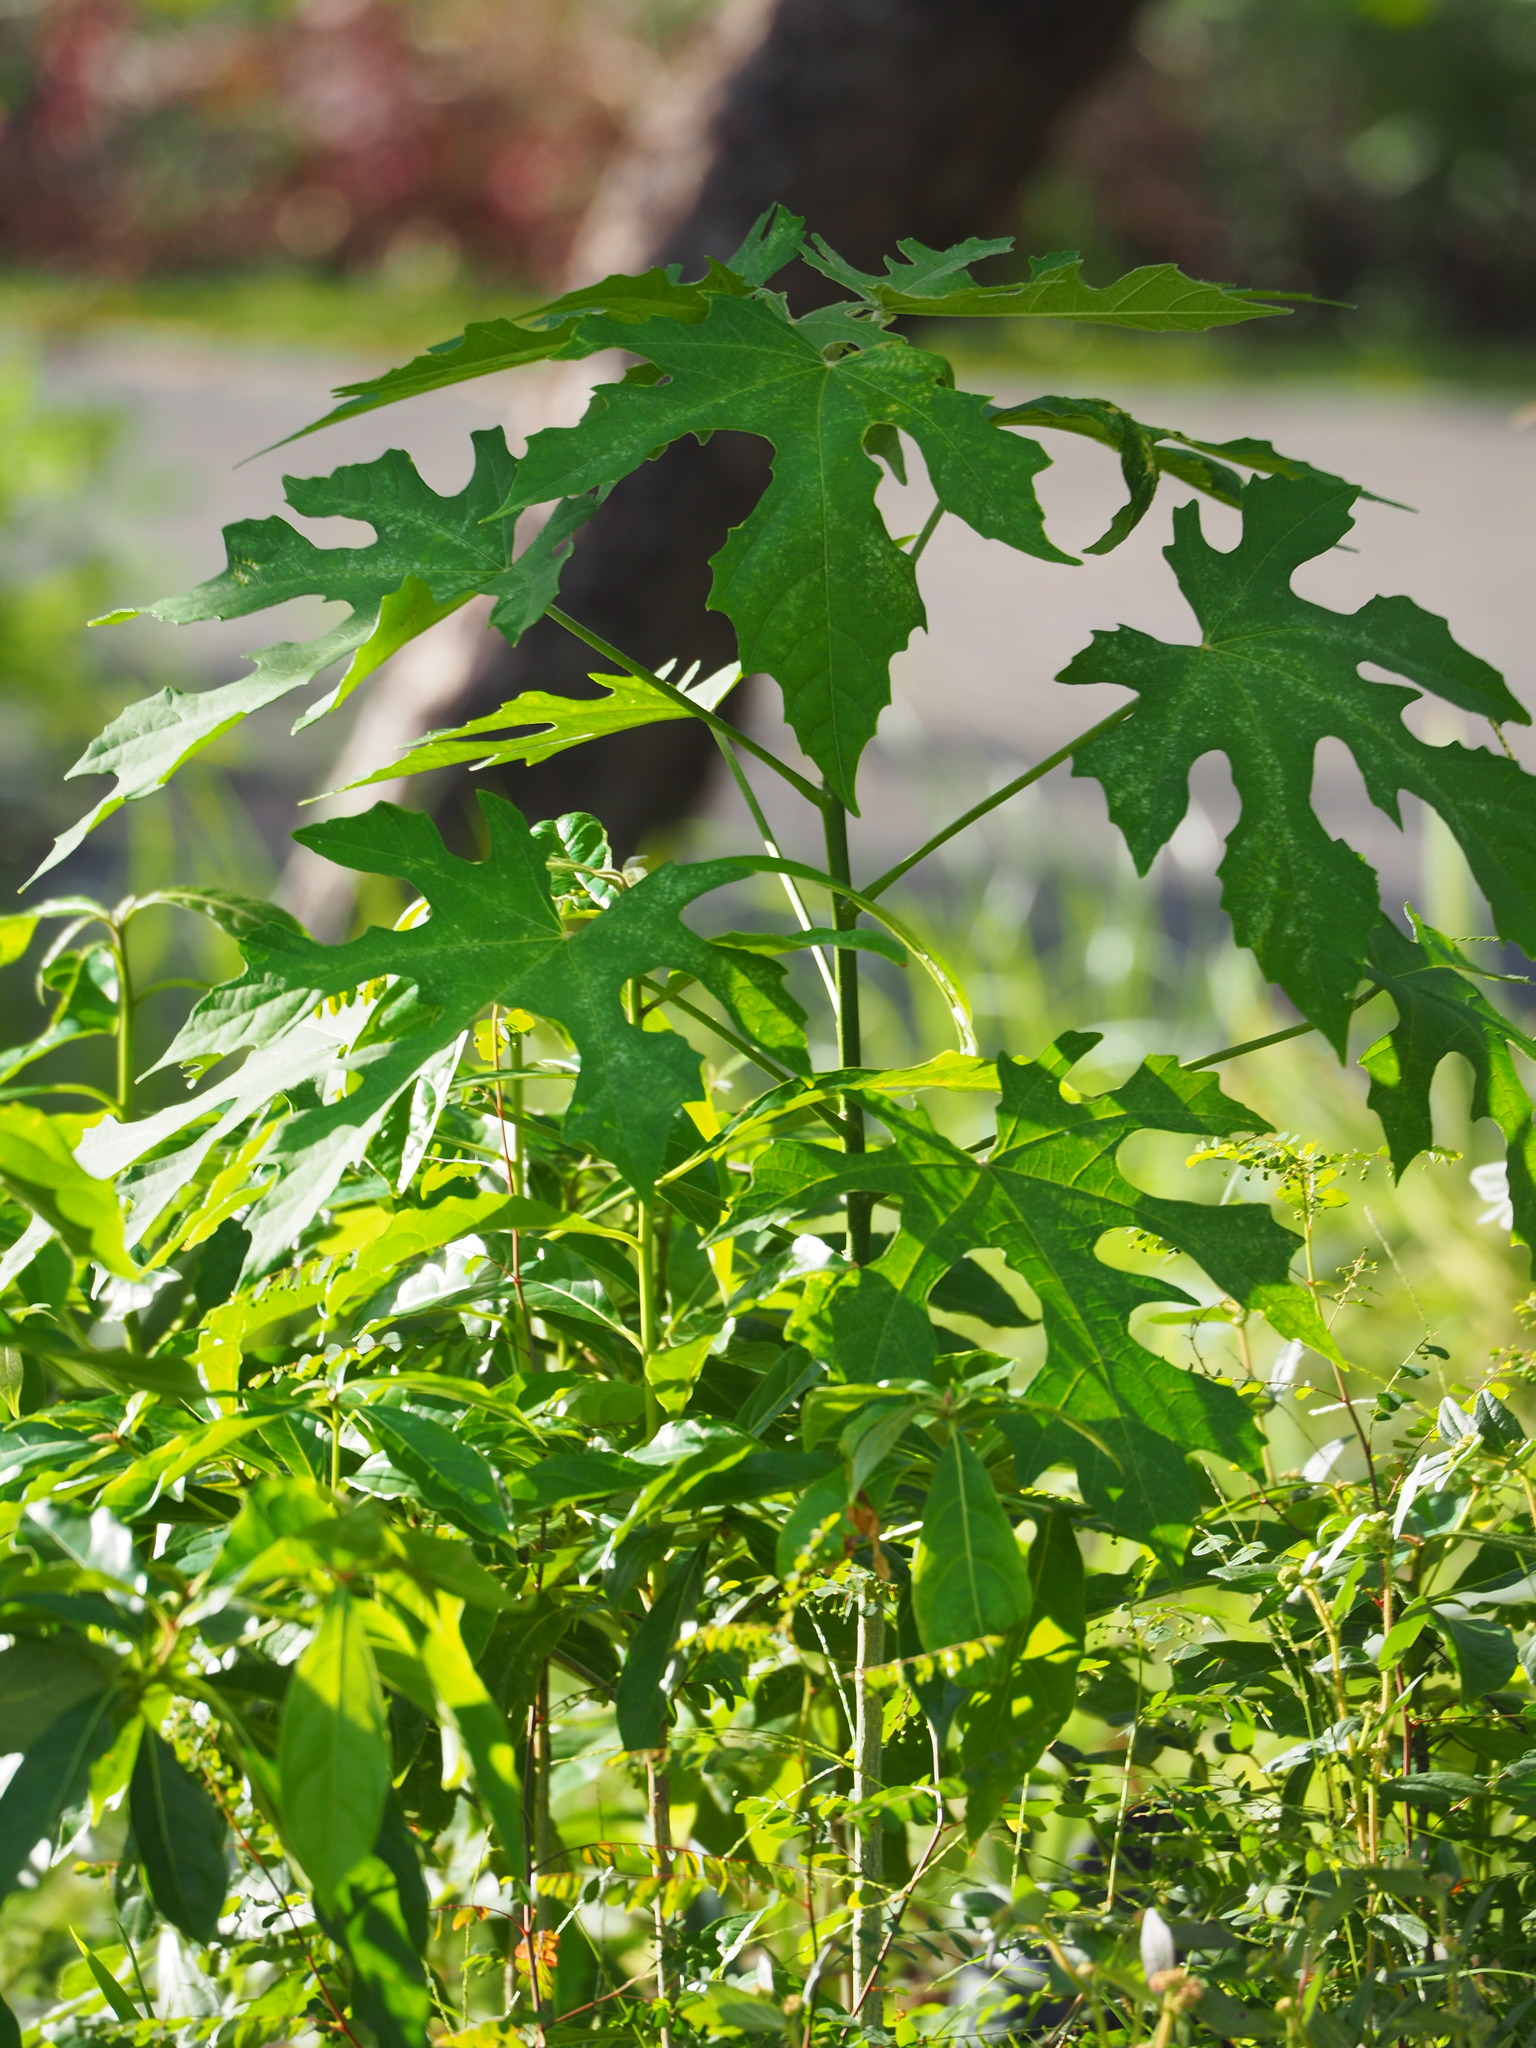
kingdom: Plantae
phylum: Tracheophyta
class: Magnoliopsida
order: Malpighiales
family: Euphorbiaceae
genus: Melanolepis
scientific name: Melanolepis multiglandulosa
